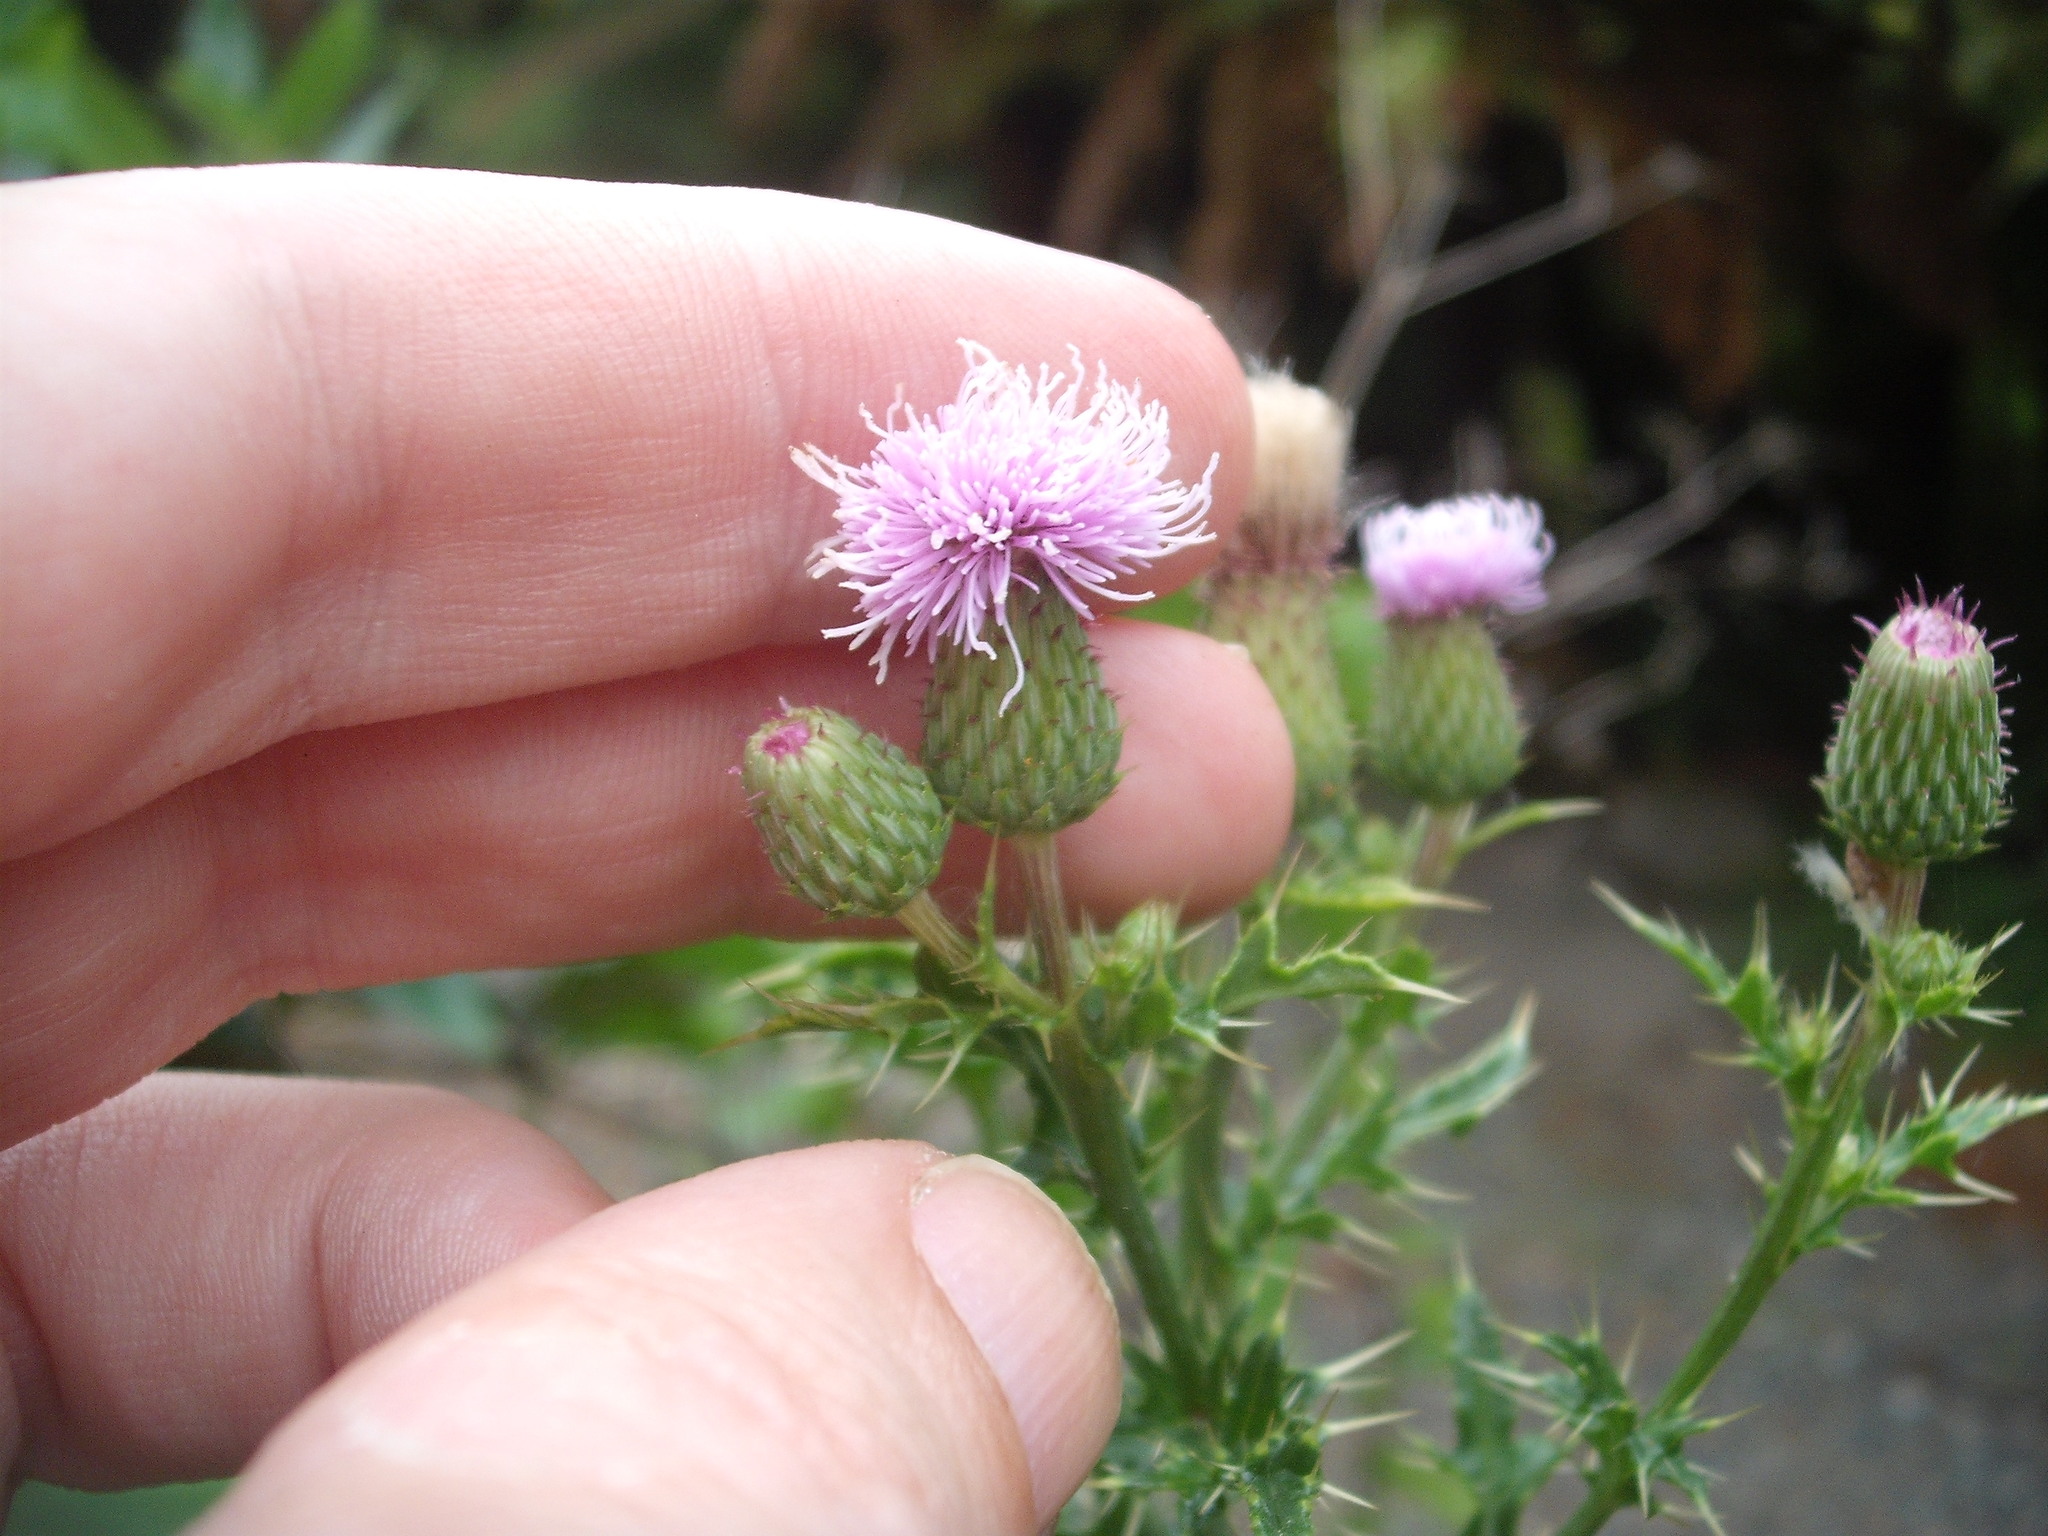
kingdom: Plantae
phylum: Tracheophyta
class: Magnoliopsida
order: Asterales
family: Asteraceae
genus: Cirsium
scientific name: Cirsium arvense
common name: Creeping thistle
